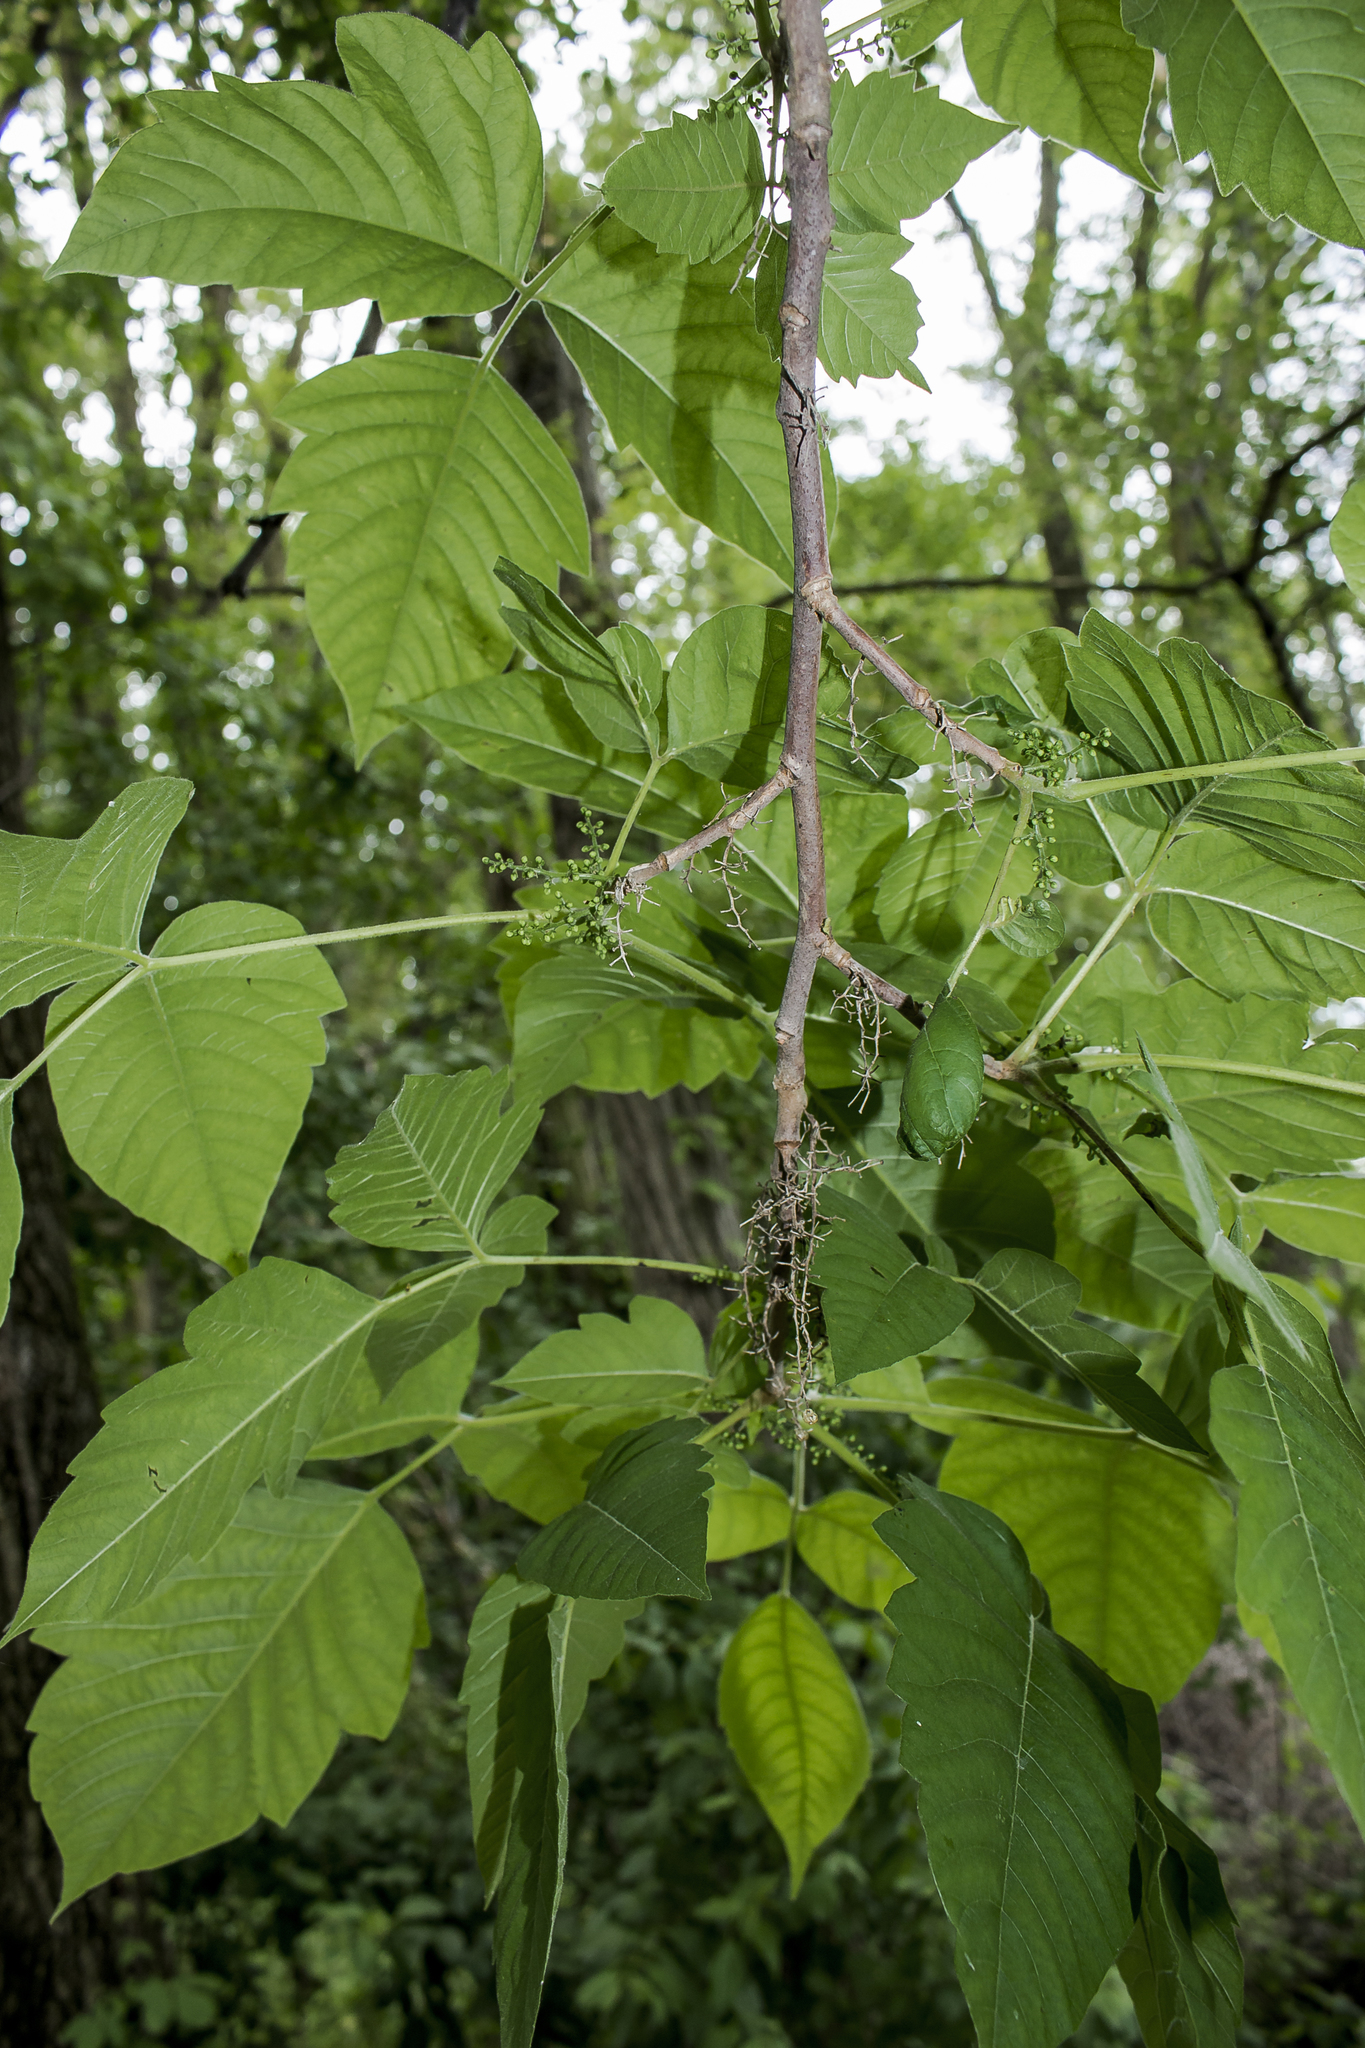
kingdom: Plantae
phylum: Tracheophyta
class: Magnoliopsida
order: Sapindales
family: Anacardiaceae
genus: Toxicodendron
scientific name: Toxicodendron radicans
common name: Poison ivy
